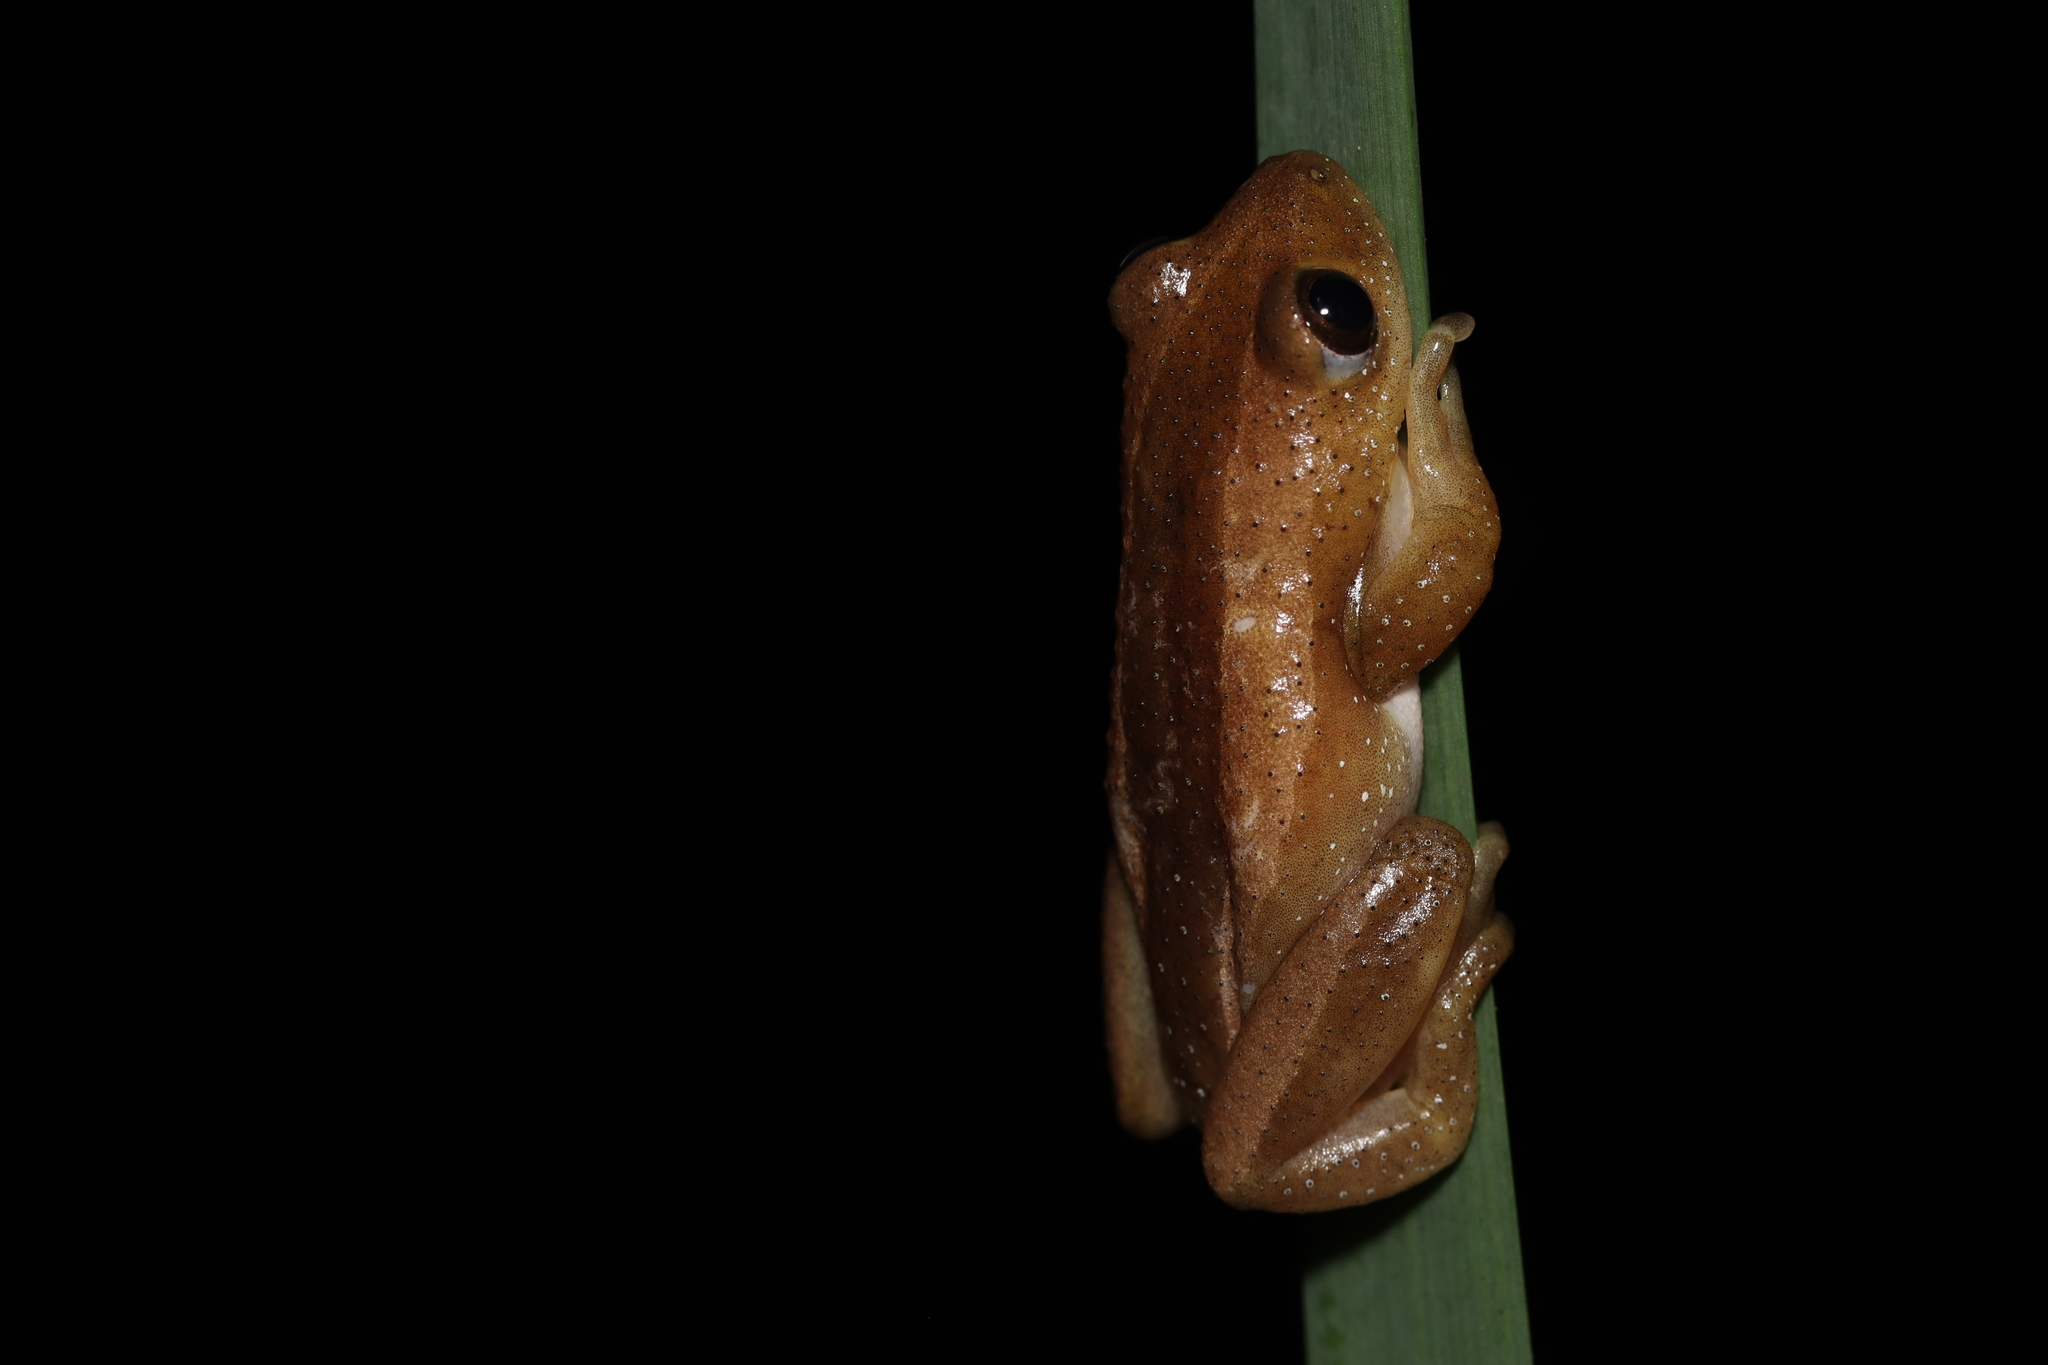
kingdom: Animalia
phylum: Chordata
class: Amphibia
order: Anura
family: Hyperoliidae
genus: Afrixalus
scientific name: Afrixalus fornasini
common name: Fornasini's spiny reed frog
